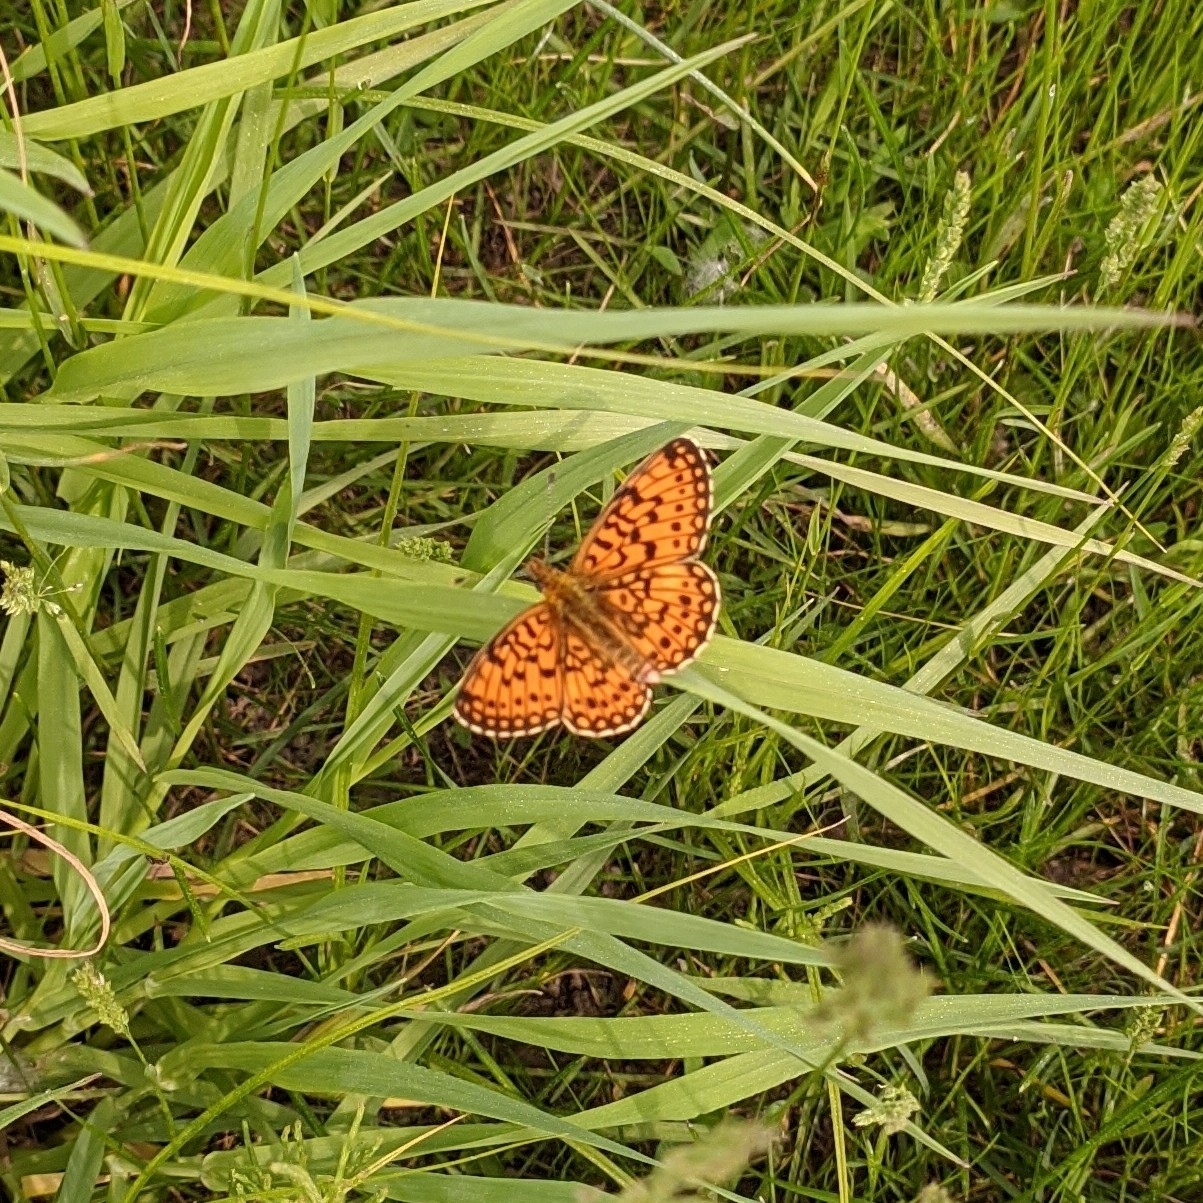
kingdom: Animalia
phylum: Arthropoda
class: Insecta
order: Lepidoptera
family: Nymphalidae
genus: Boloria
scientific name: Boloria selene
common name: Small pearl-bordered fritillary
